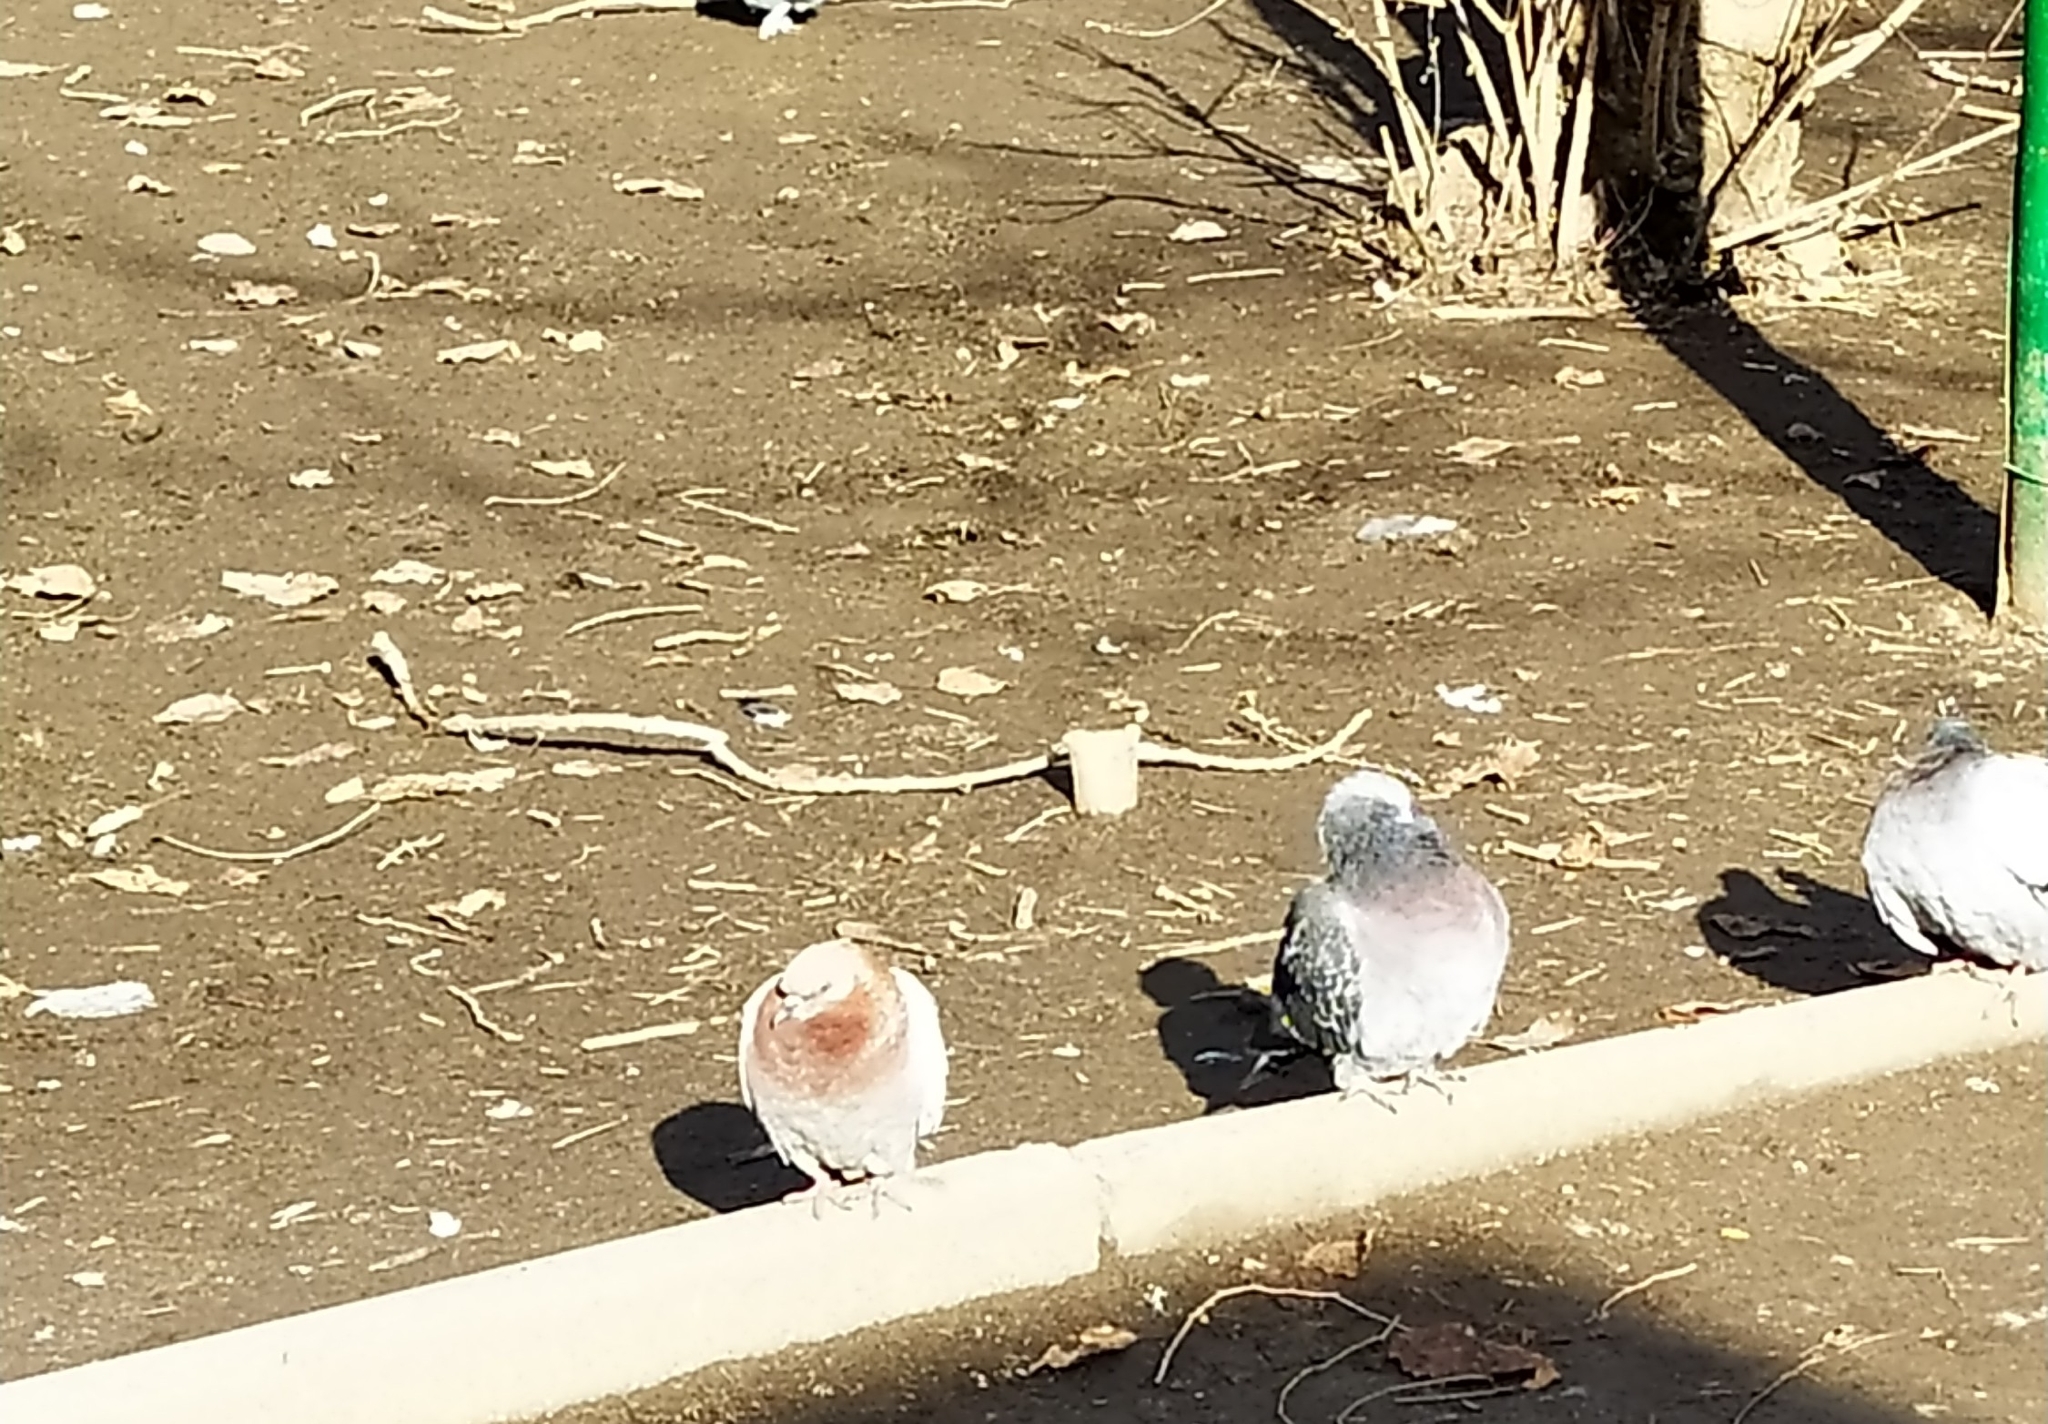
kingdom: Animalia
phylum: Chordata
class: Aves
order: Columbiformes
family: Columbidae
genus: Columba
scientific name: Columba livia
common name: Rock pigeon
